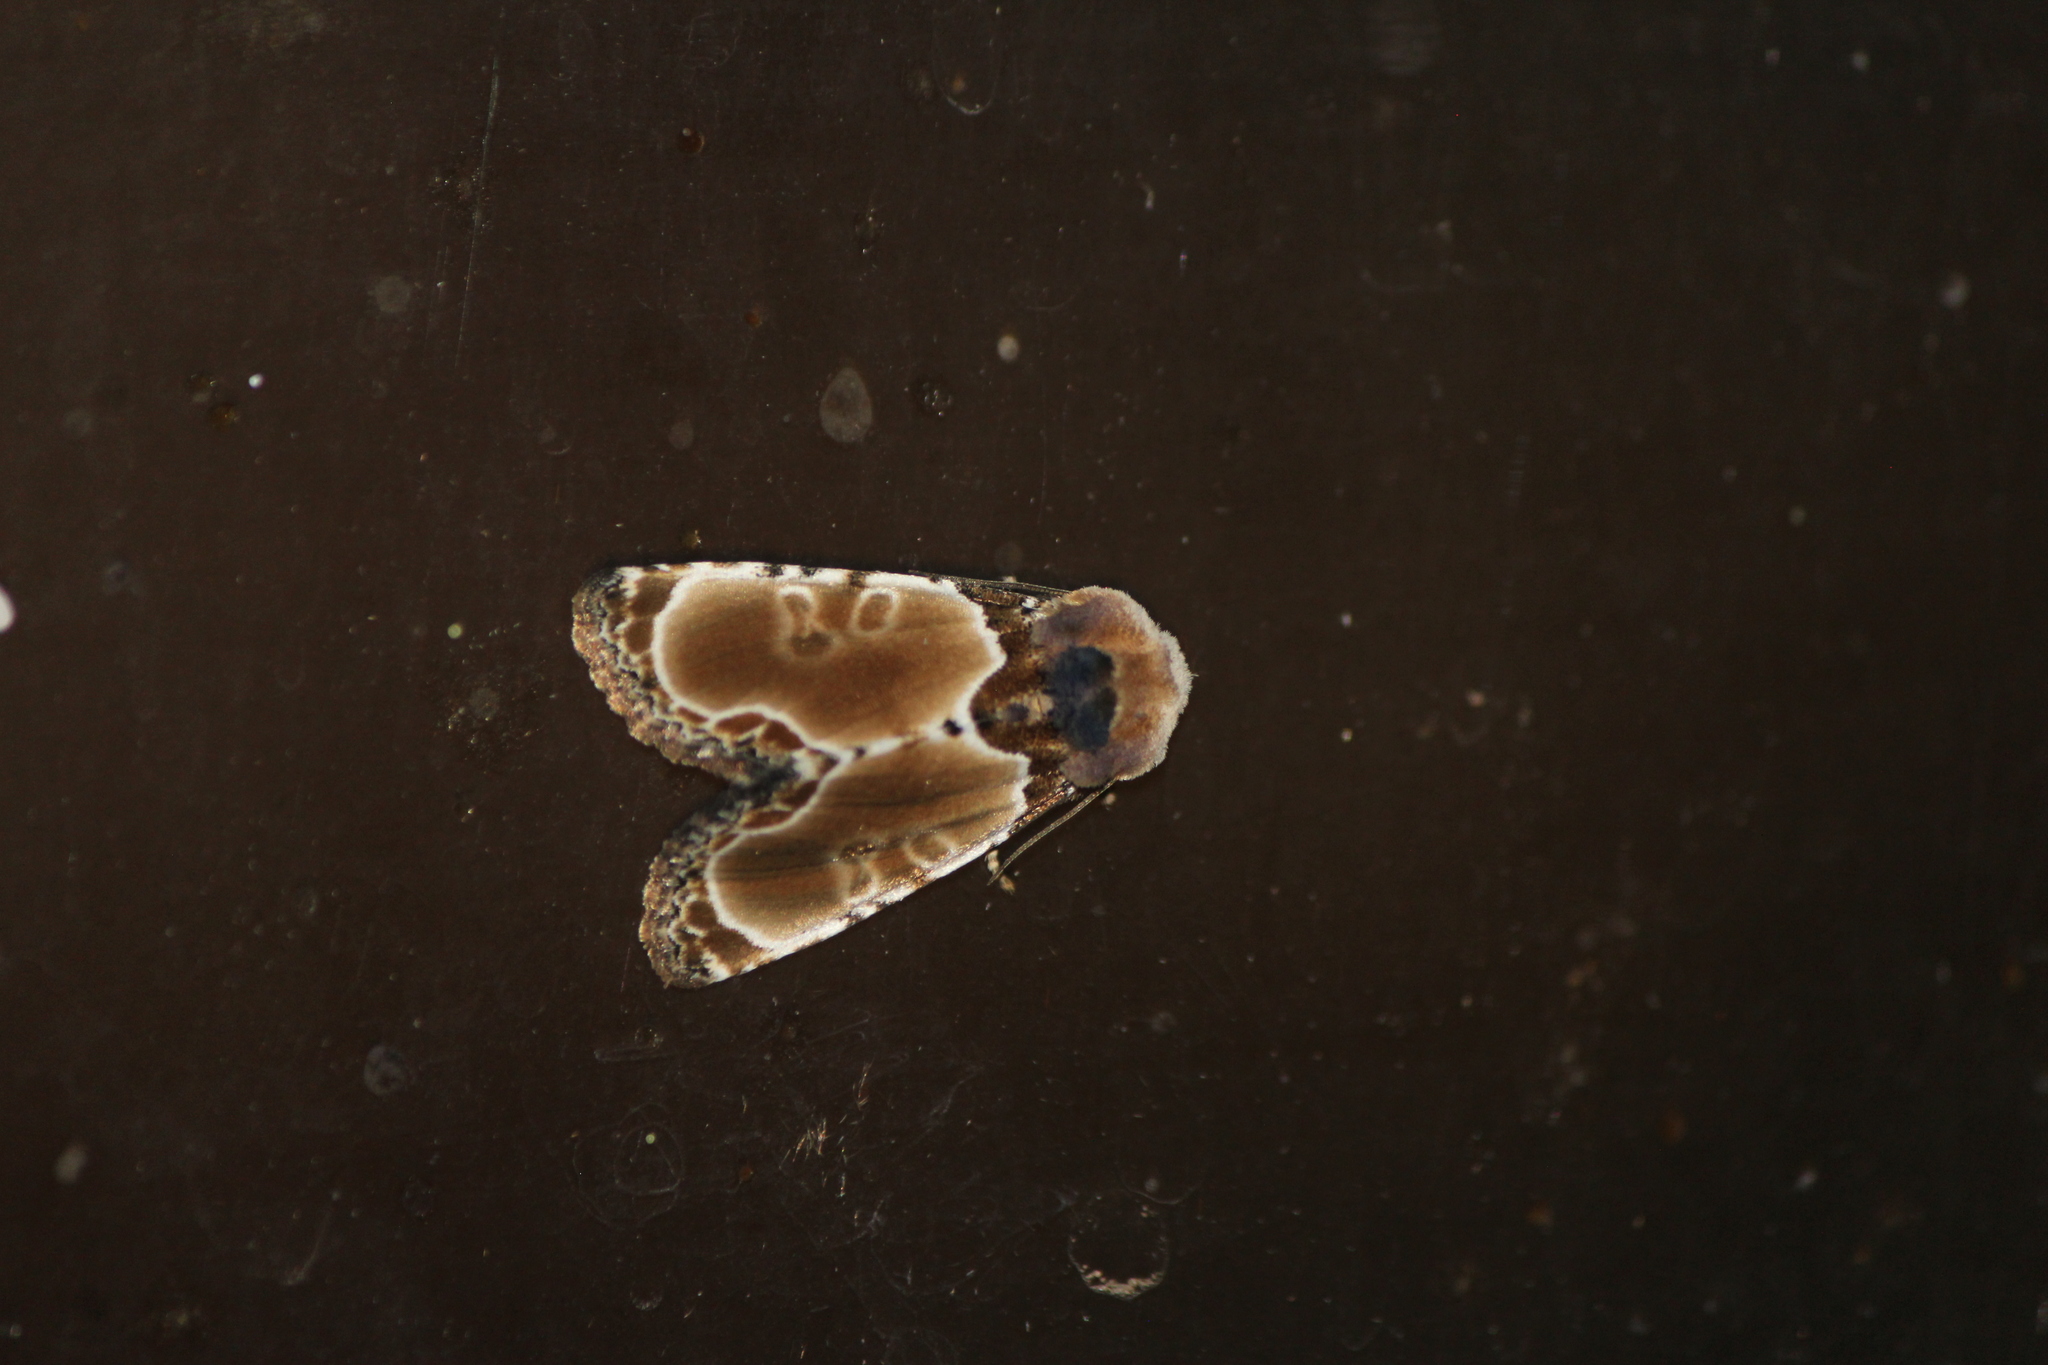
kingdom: Animalia
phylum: Arthropoda
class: Insecta
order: Lepidoptera
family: Noctuidae
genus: Thyatirodes
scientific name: Thyatirodes godalma
